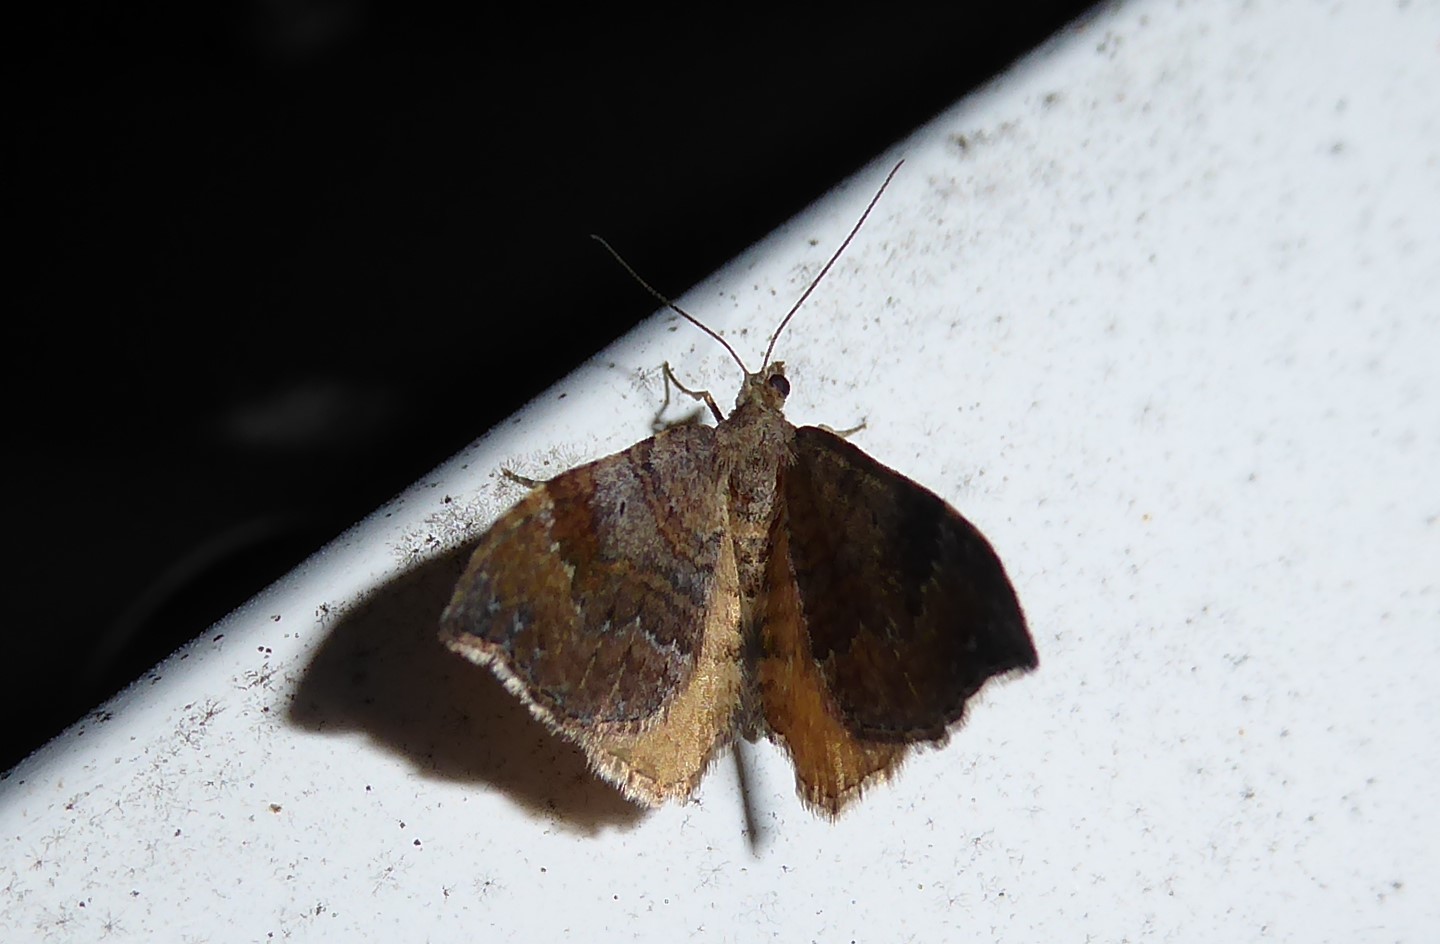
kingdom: Animalia
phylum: Arthropoda
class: Insecta
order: Lepidoptera
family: Geometridae
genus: Homodotis
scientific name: Homodotis megaspilata
